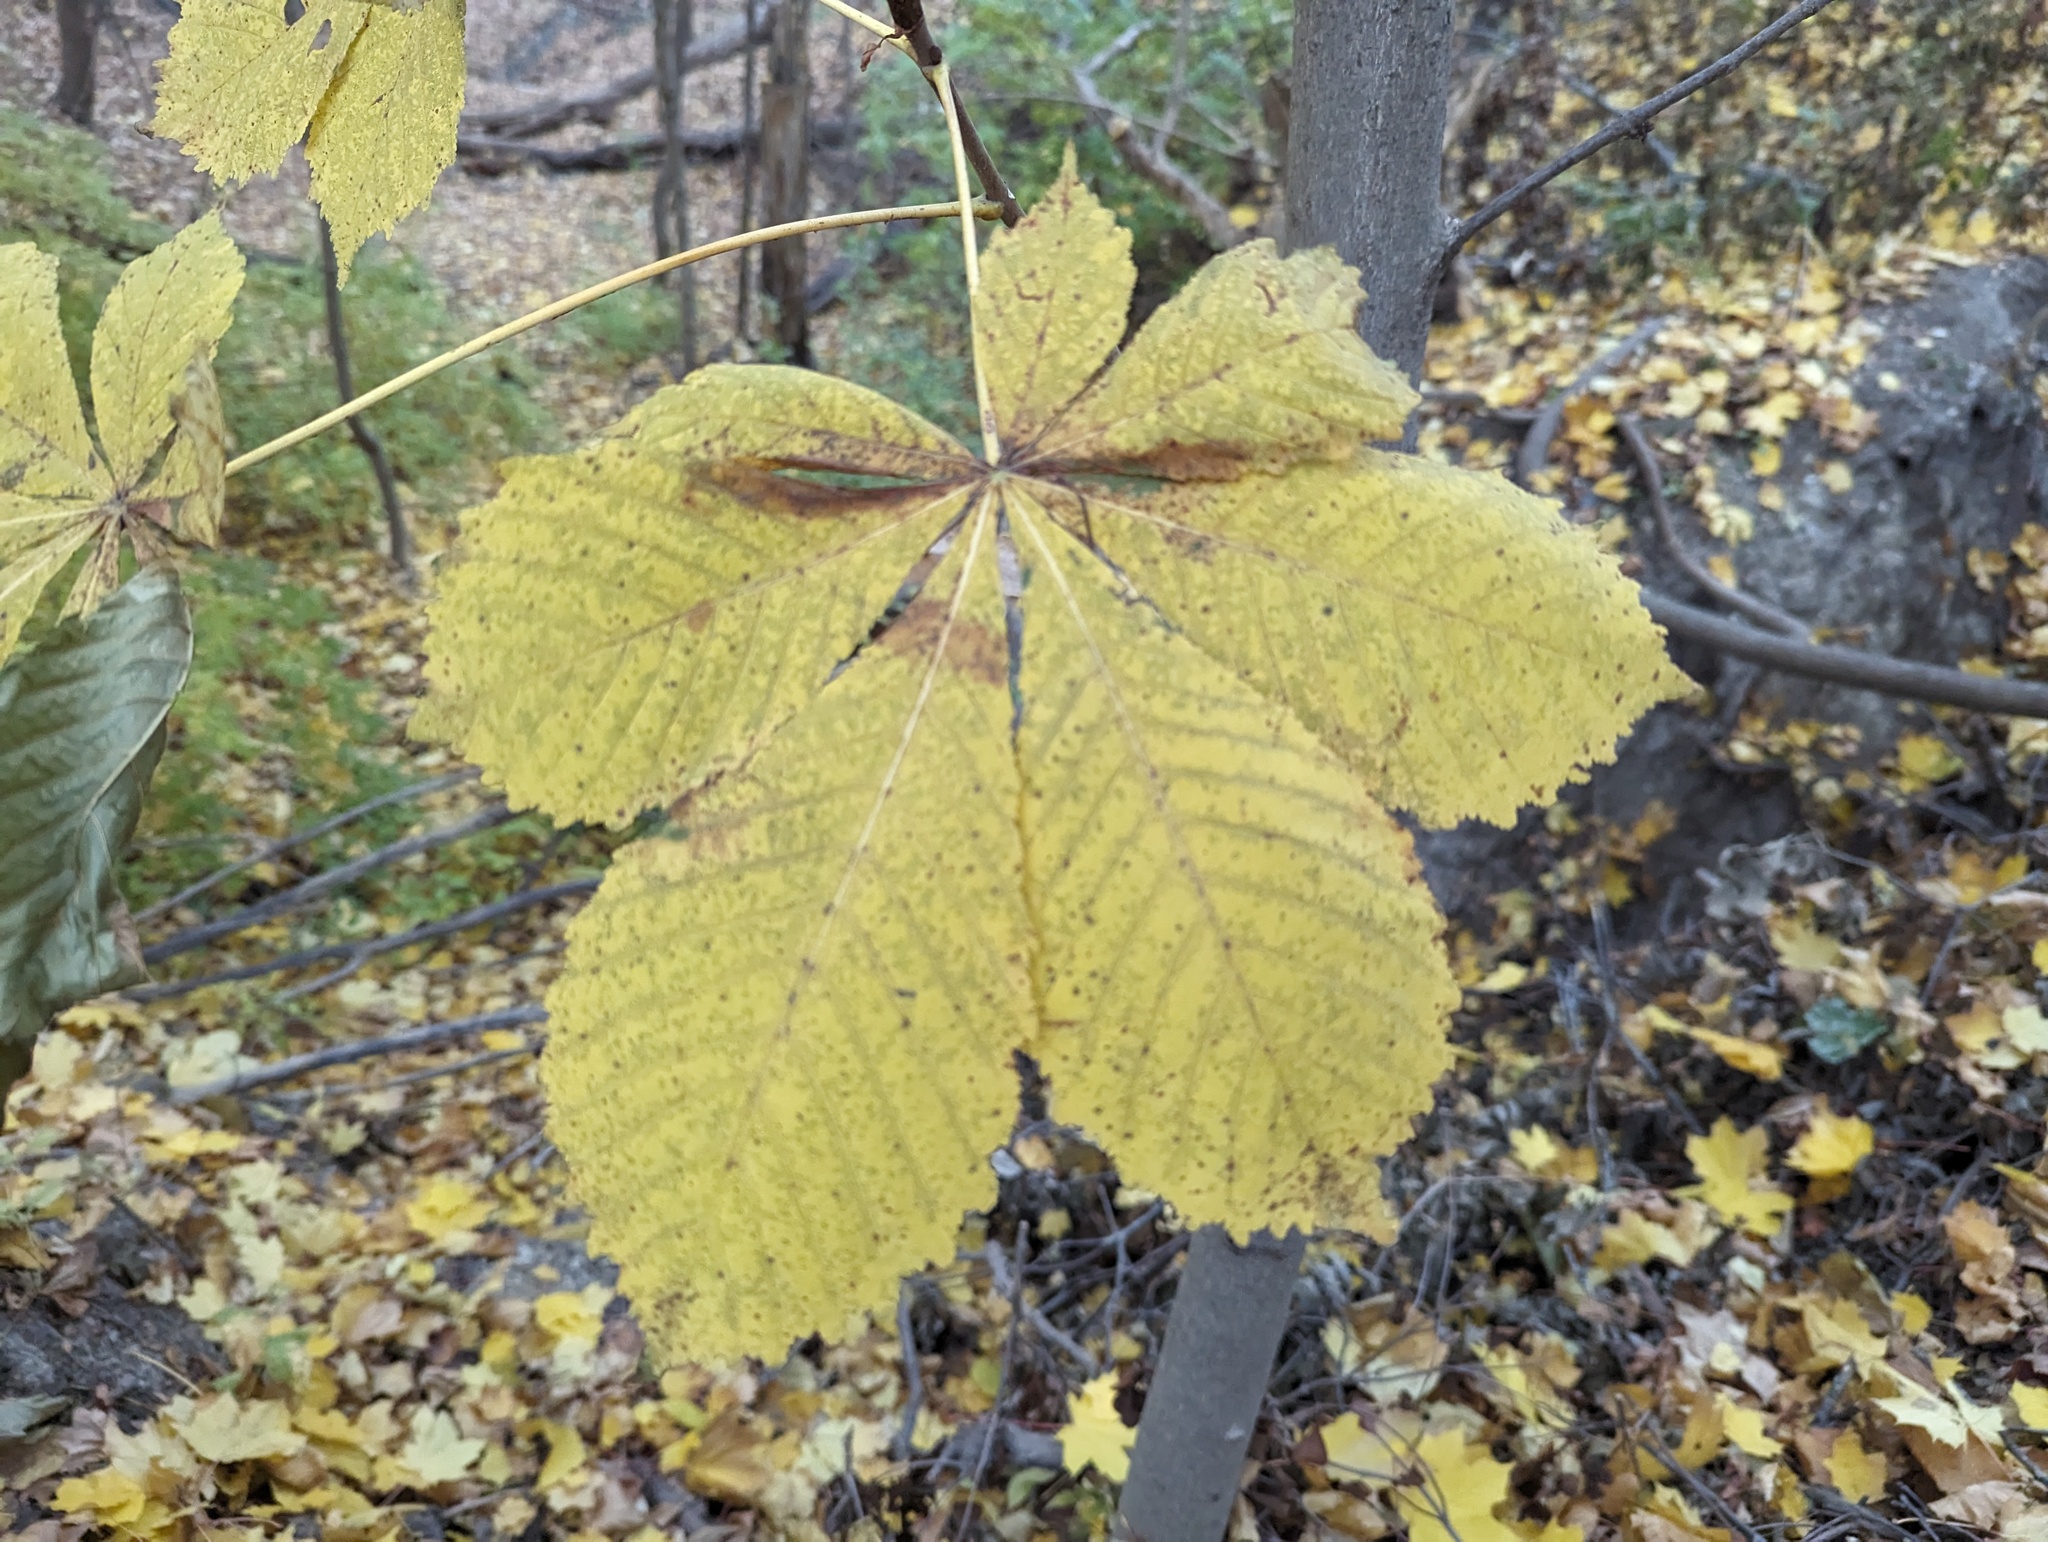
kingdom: Plantae
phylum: Tracheophyta
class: Magnoliopsida
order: Sapindales
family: Sapindaceae
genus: Aesculus
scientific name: Aesculus hippocastanum
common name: Horse-chestnut
